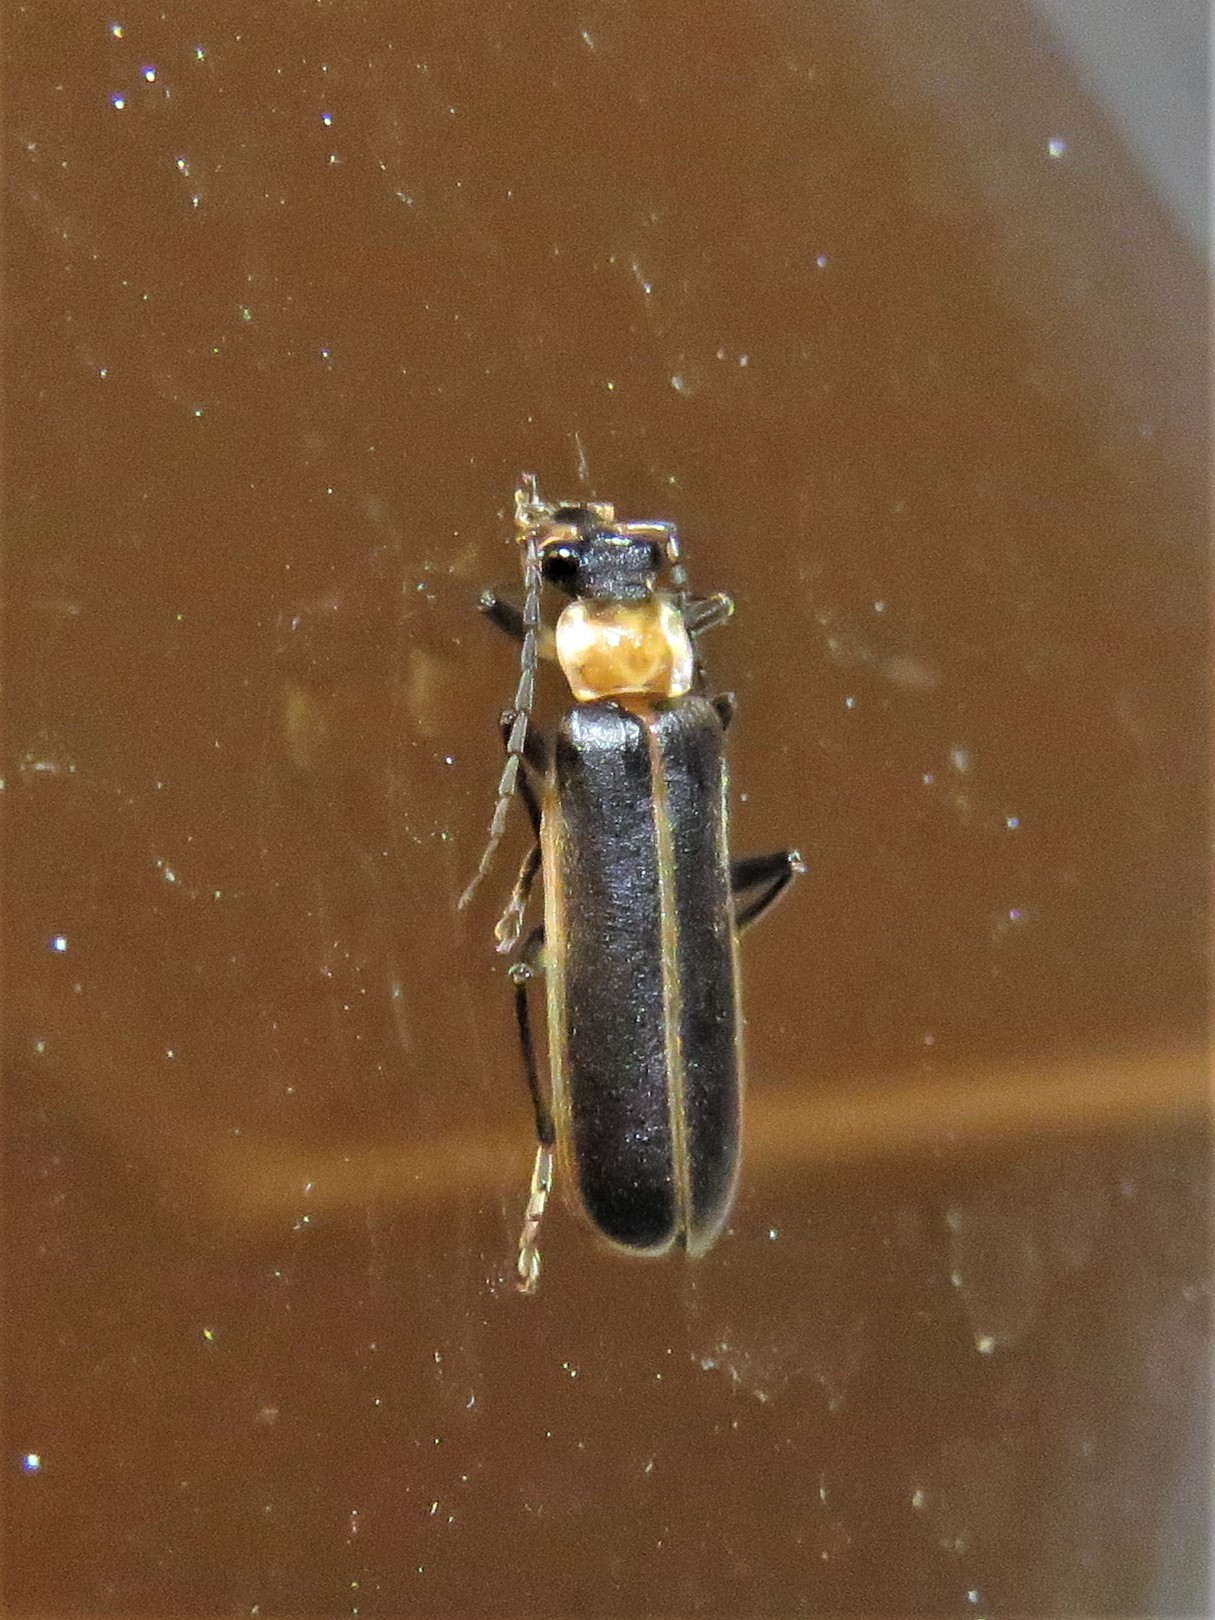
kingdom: Animalia
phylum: Arthropoda
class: Insecta
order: Coleoptera
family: Cantharidae
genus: Podabrus
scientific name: Podabrus flavicollis
